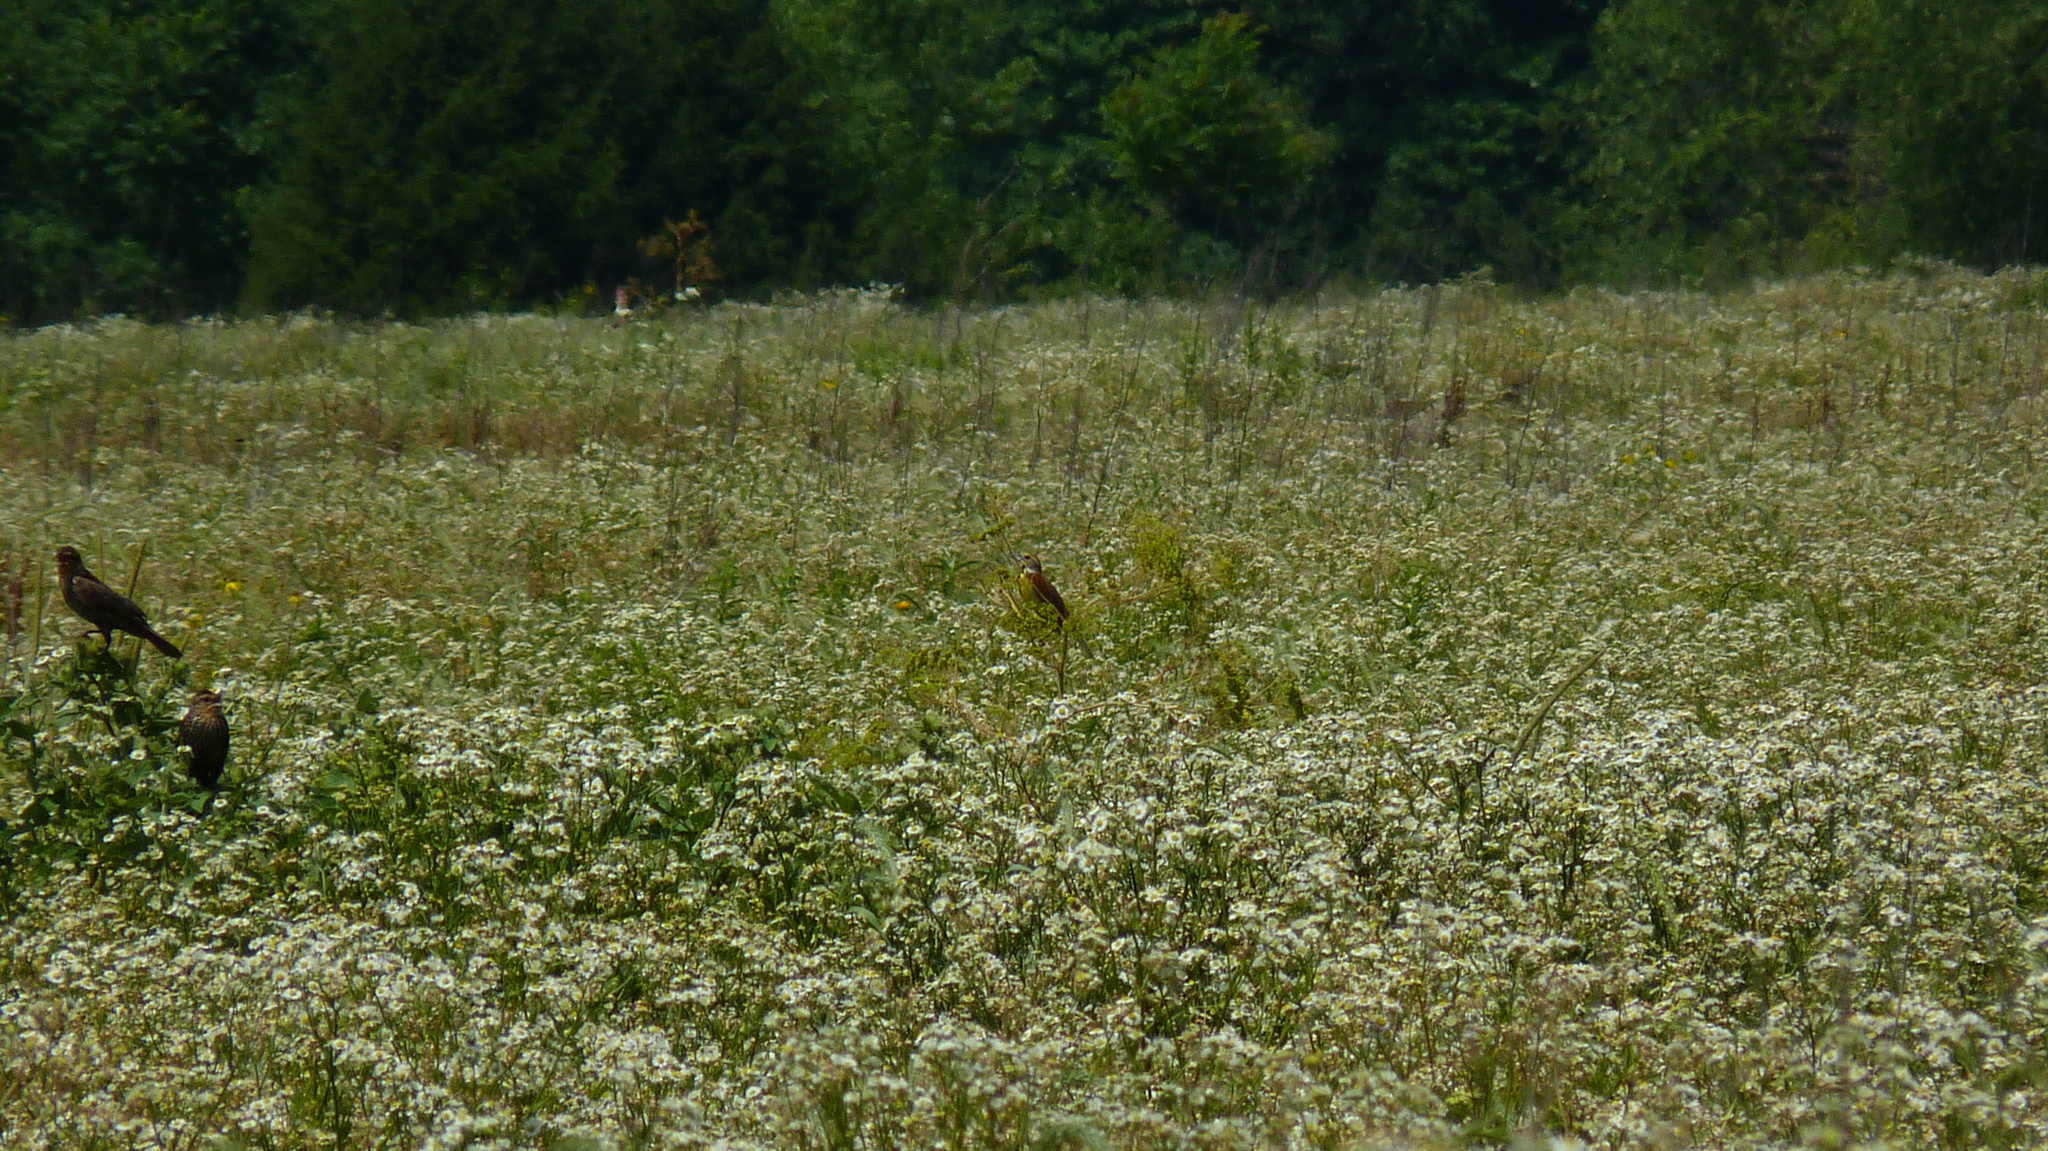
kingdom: Animalia
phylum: Chordata
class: Aves
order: Passeriformes
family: Cardinalidae
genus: Spiza
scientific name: Spiza americana
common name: Dickcissel
